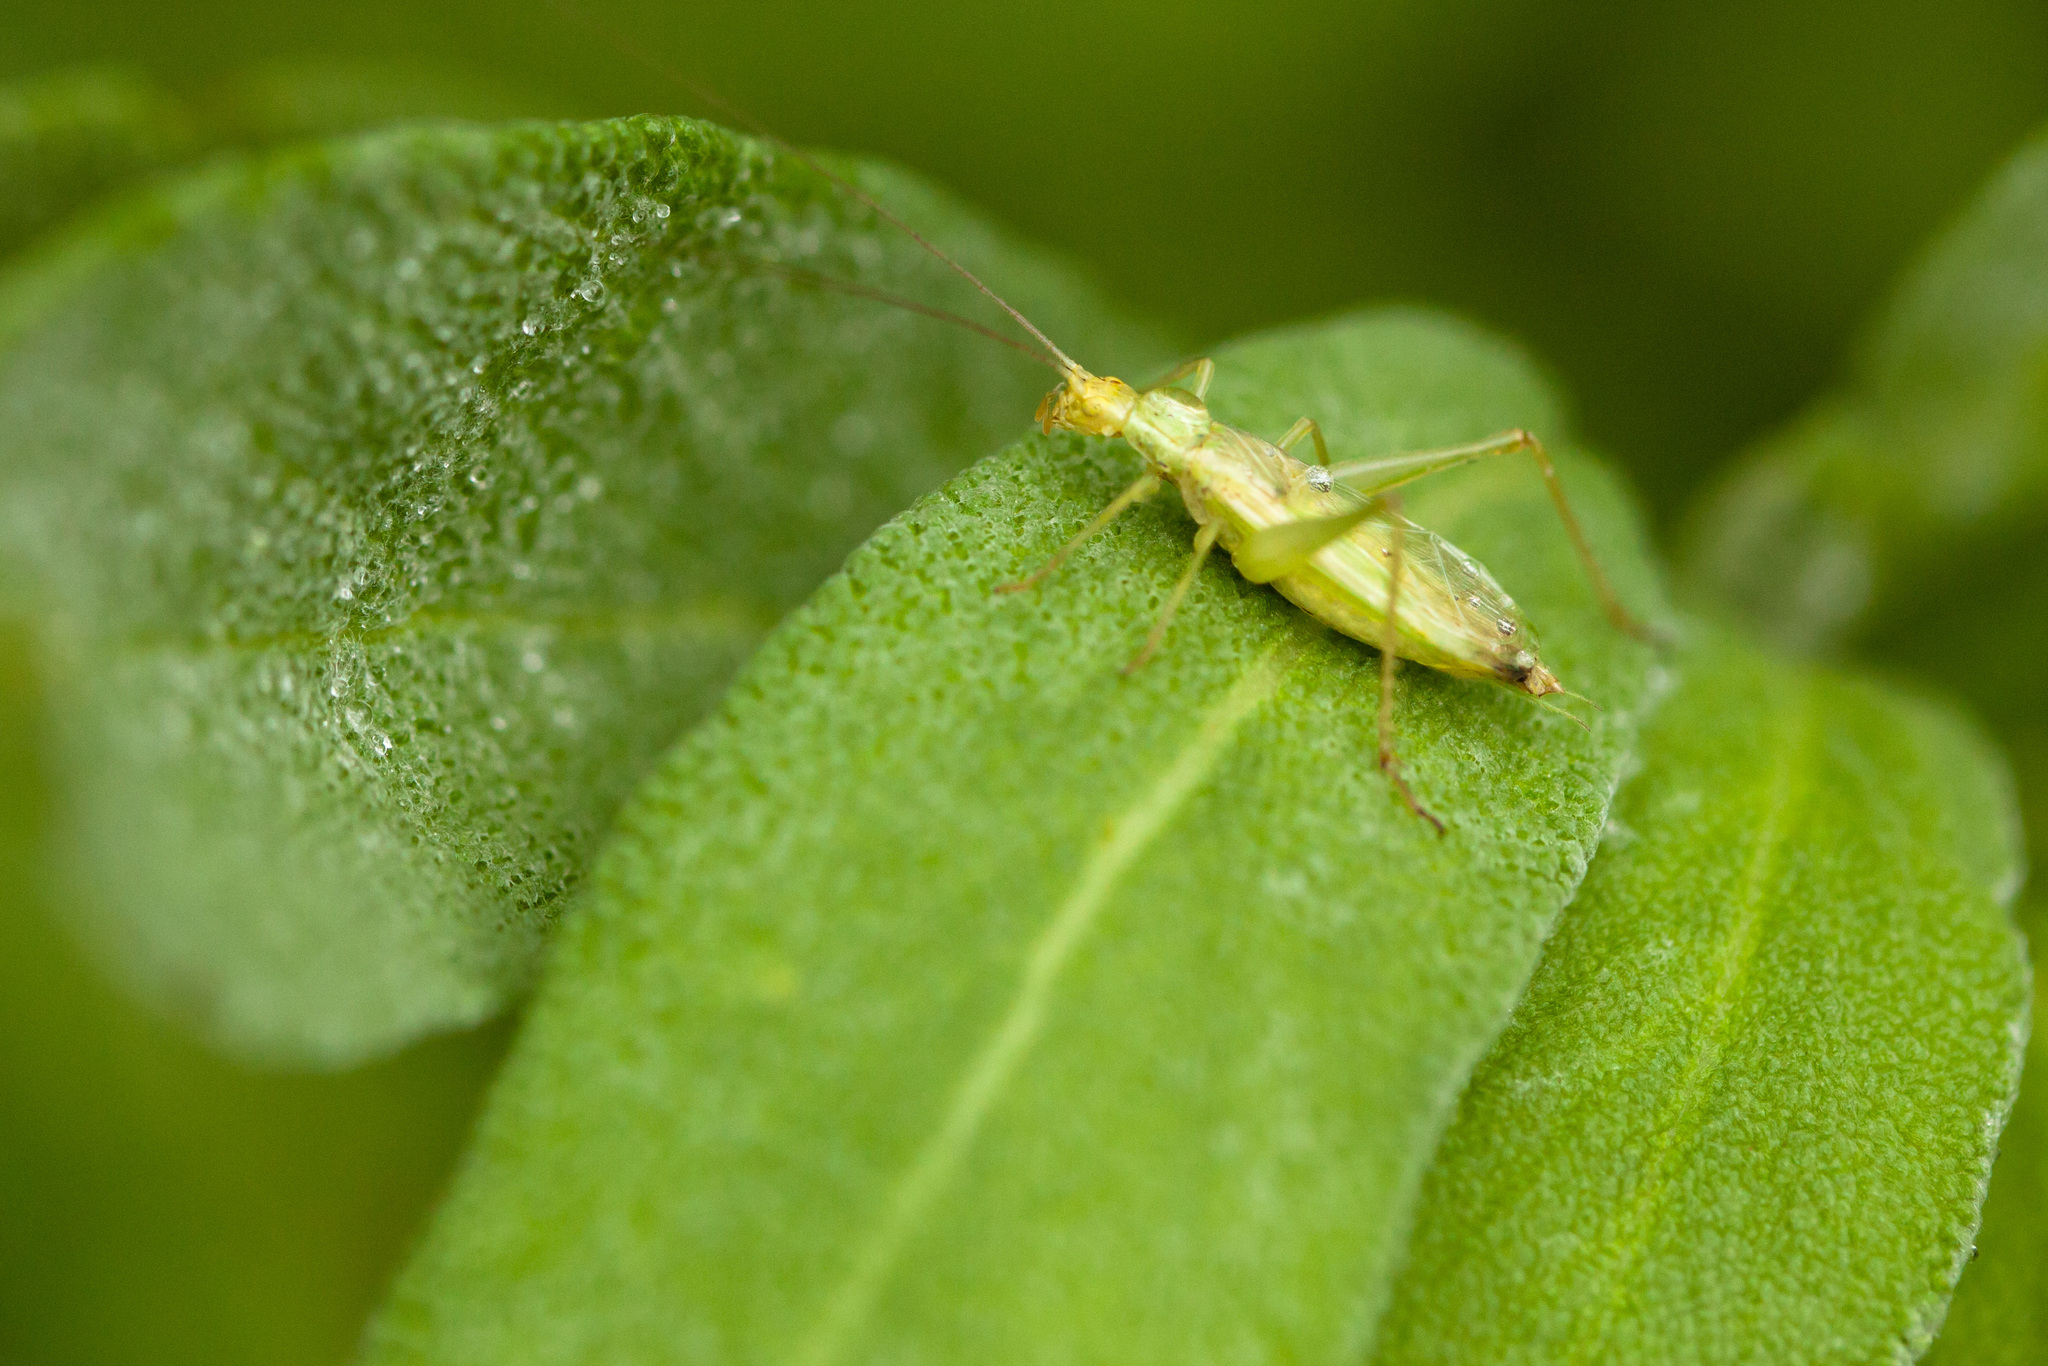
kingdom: Animalia
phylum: Arthropoda
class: Insecta
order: Orthoptera
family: Gryllidae
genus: Oecanthus
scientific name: Oecanthus
